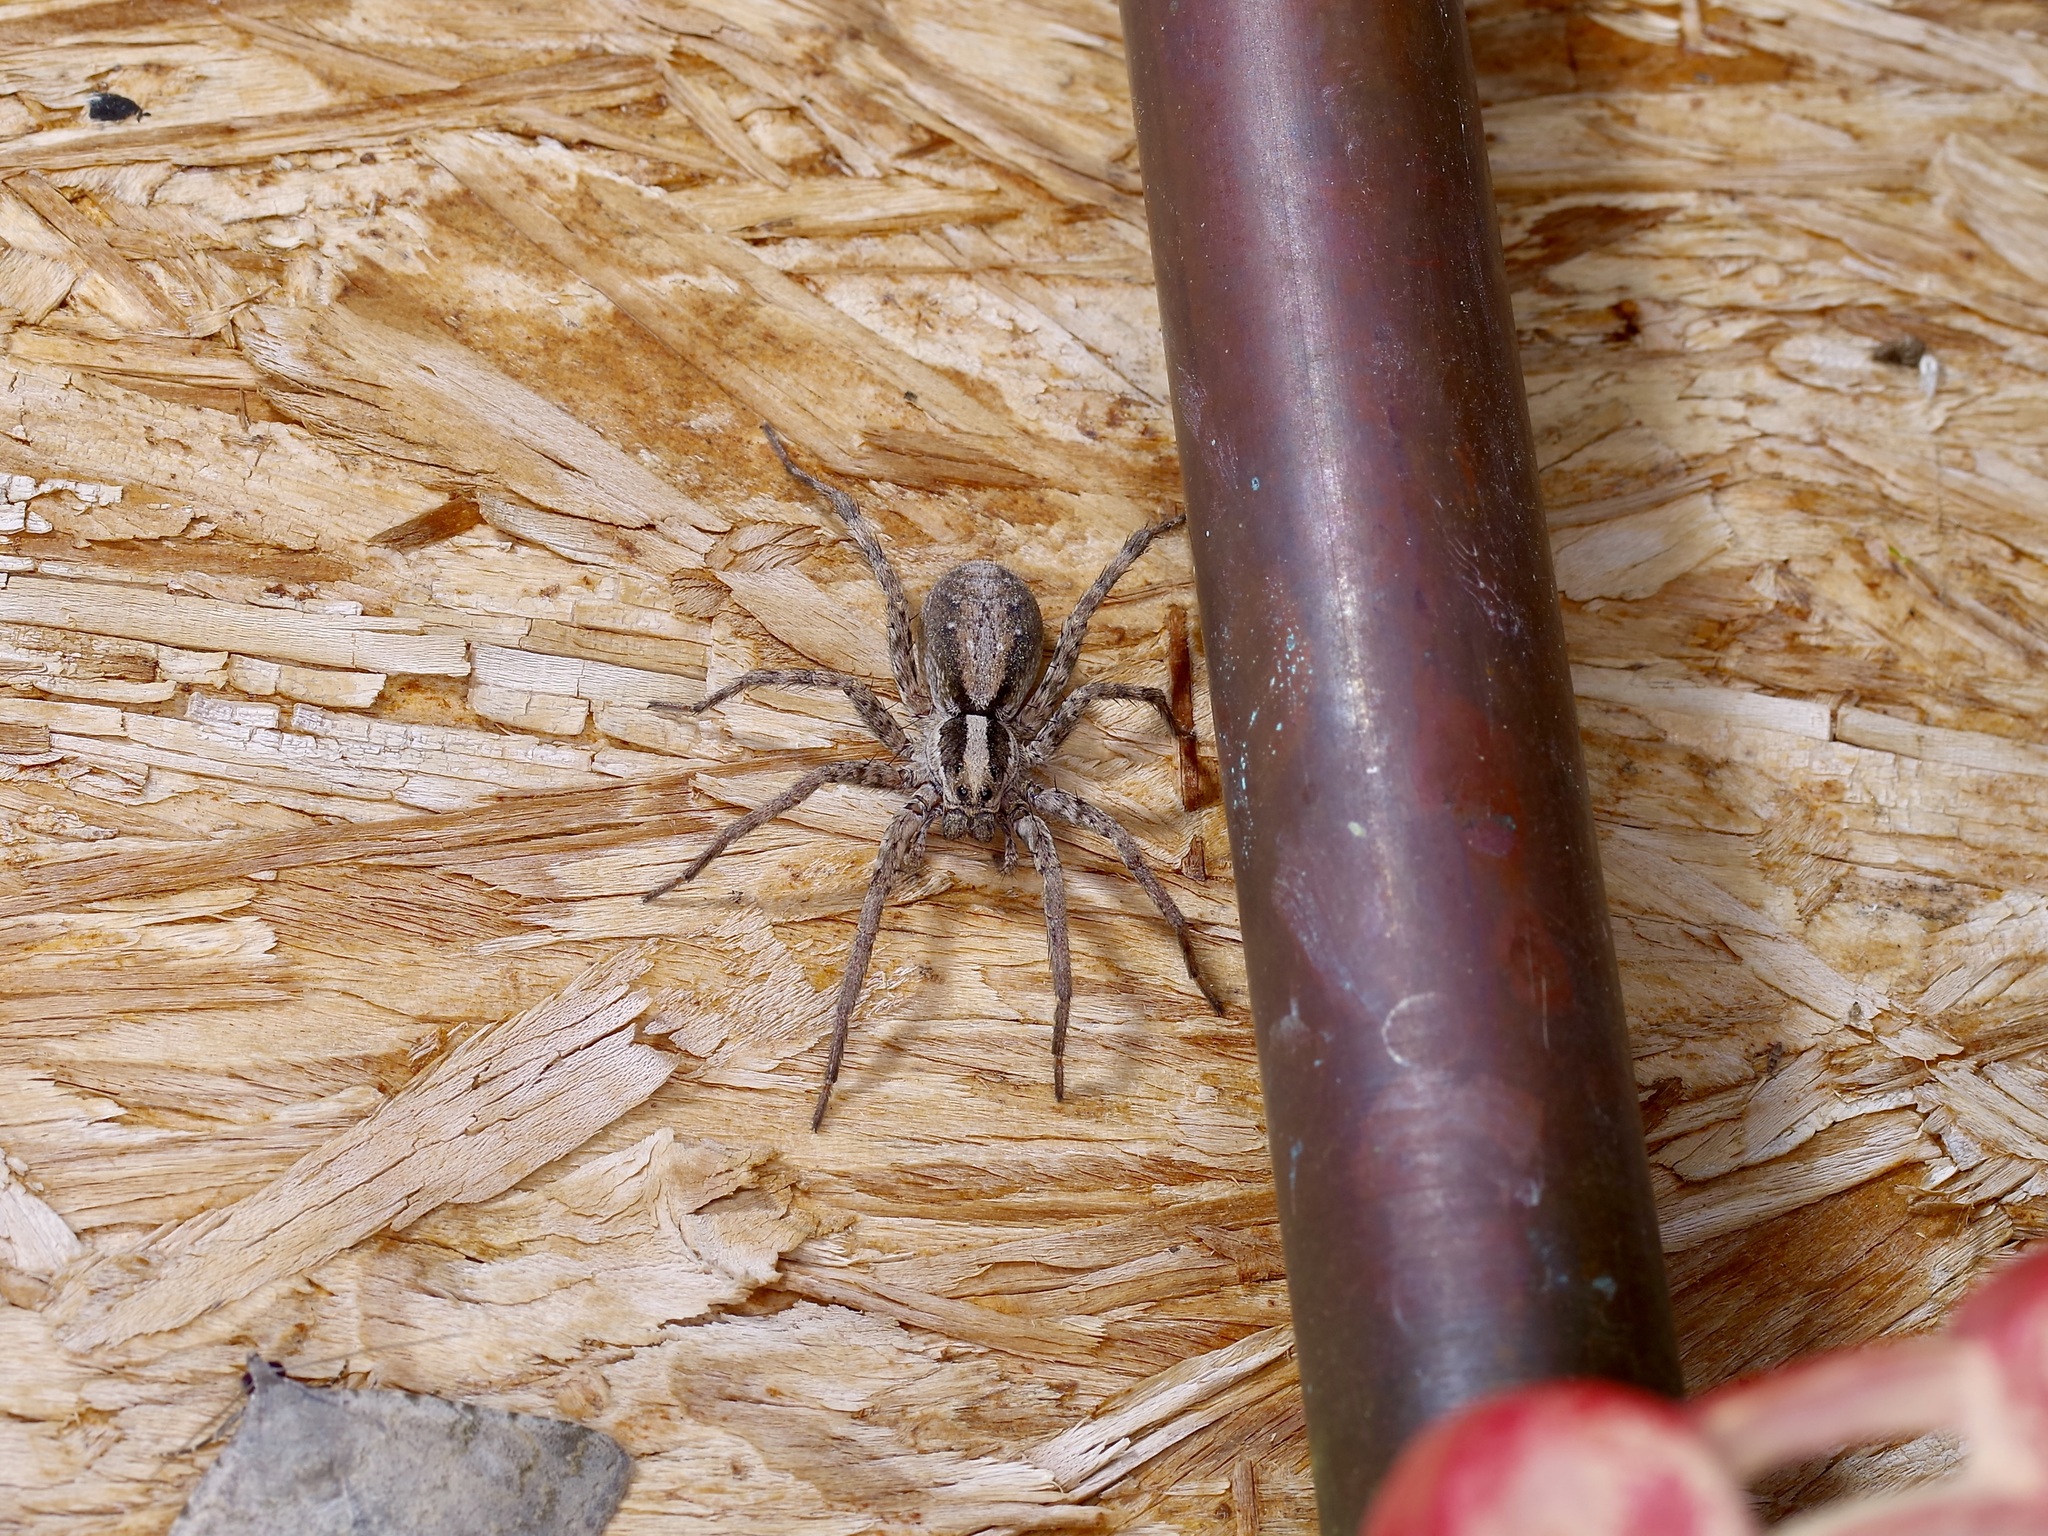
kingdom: Animalia
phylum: Arthropoda
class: Arachnida
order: Araneae
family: Lycosidae
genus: Schizocosa
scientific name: Schizocosa aulonia
